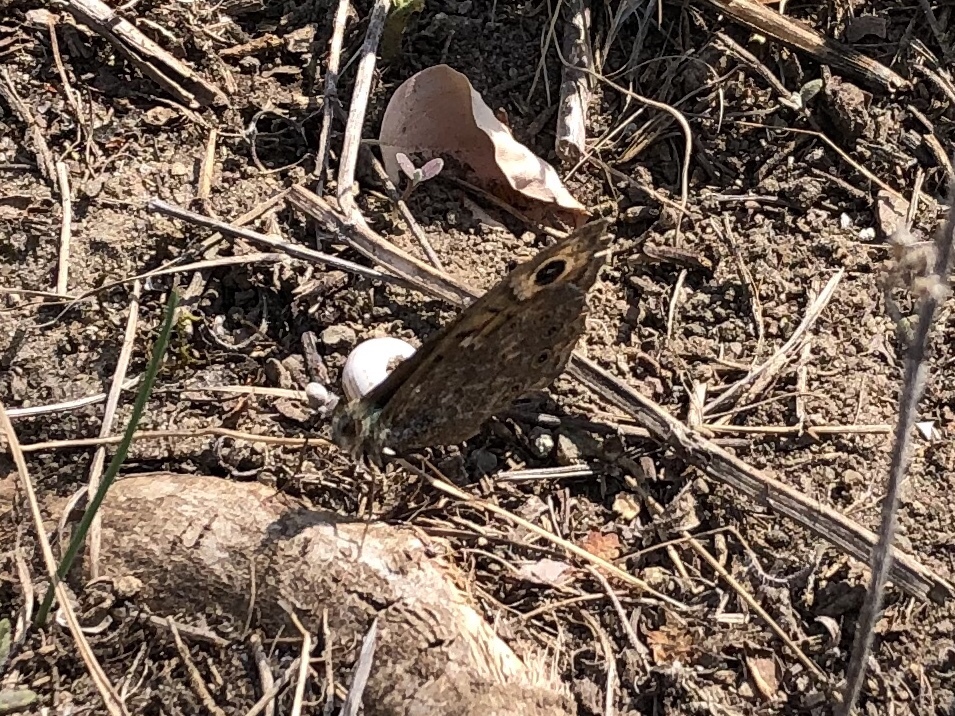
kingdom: Animalia
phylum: Arthropoda
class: Insecta
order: Lepidoptera
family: Nymphalidae
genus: Pararge
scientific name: Pararge Lasiommata megera
